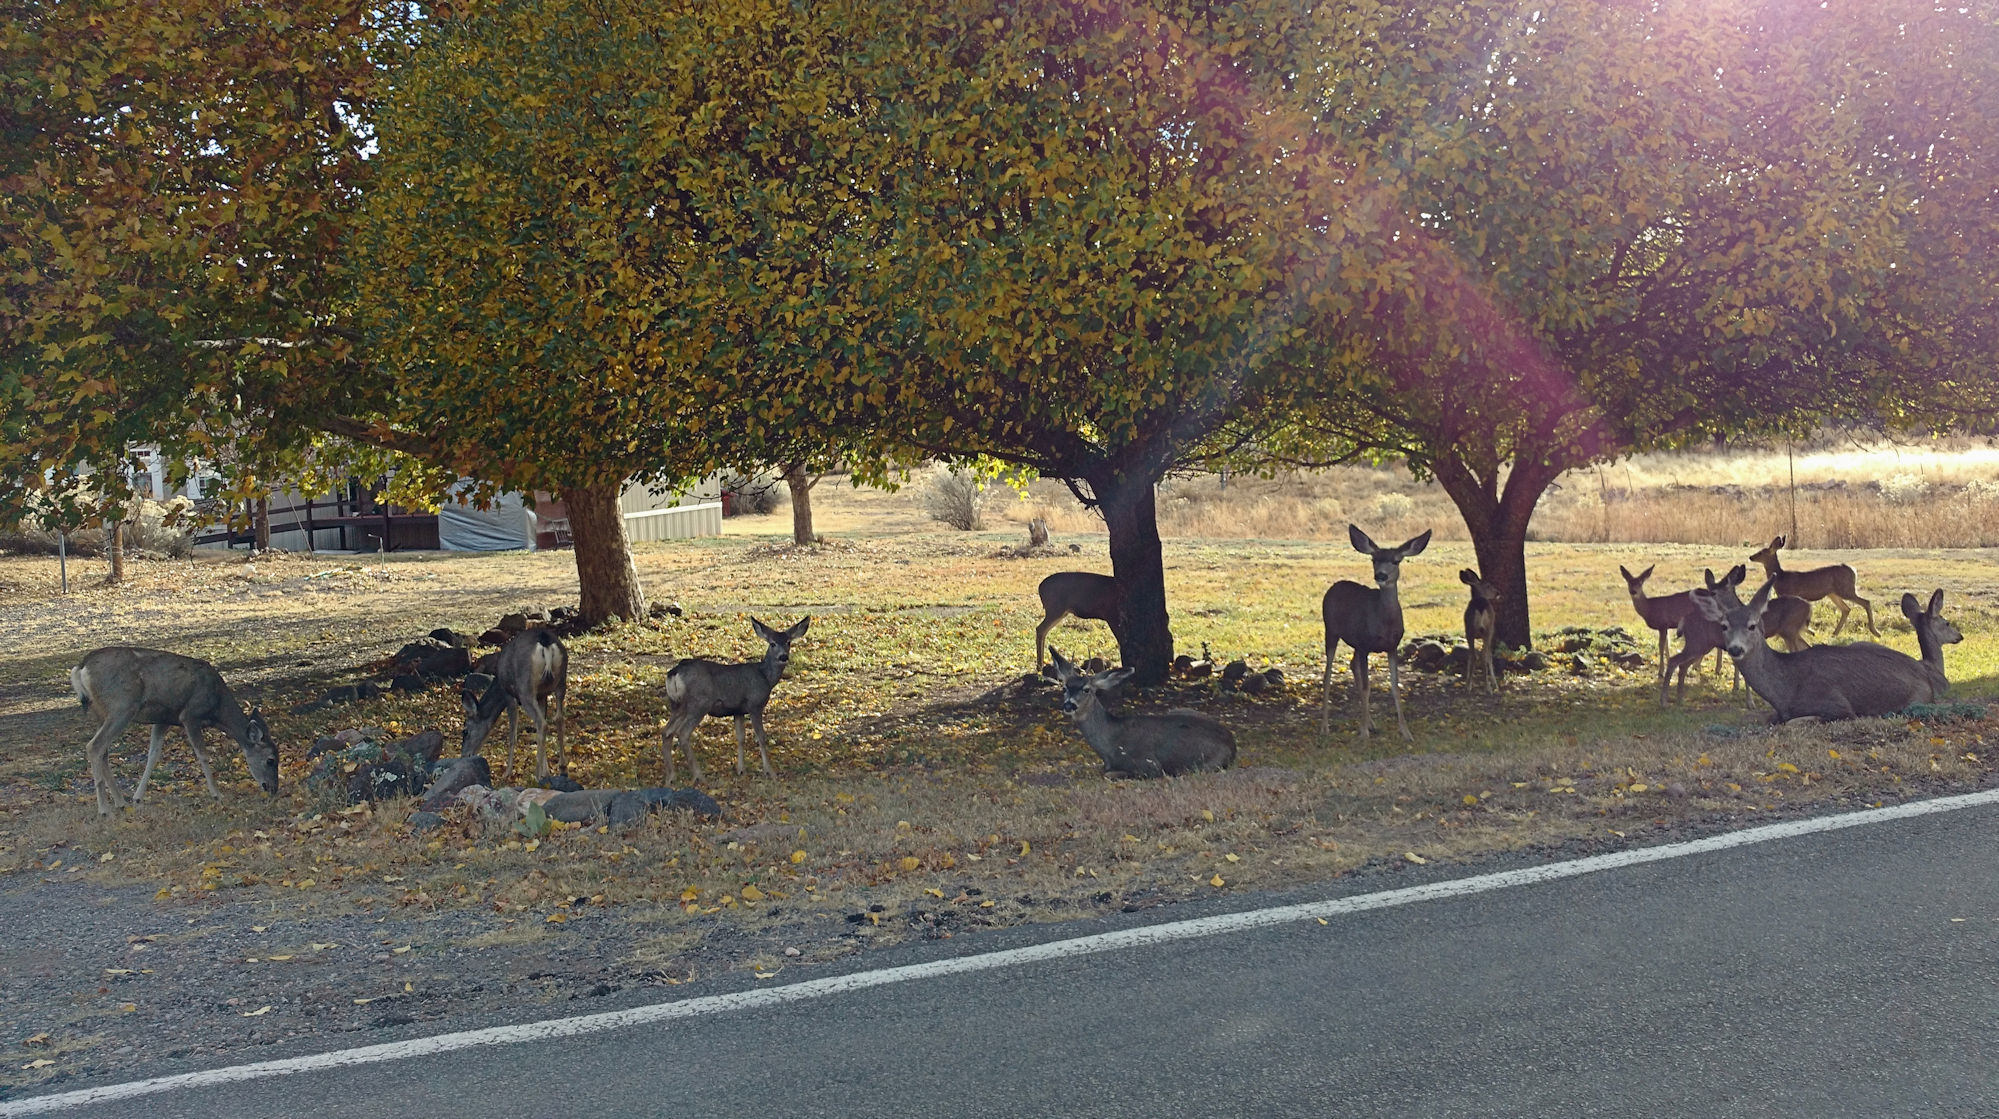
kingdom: Animalia
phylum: Chordata
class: Mammalia
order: Artiodactyla
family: Cervidae
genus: Odocoileus
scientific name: Odocoileus hemionus
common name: Mule deer
